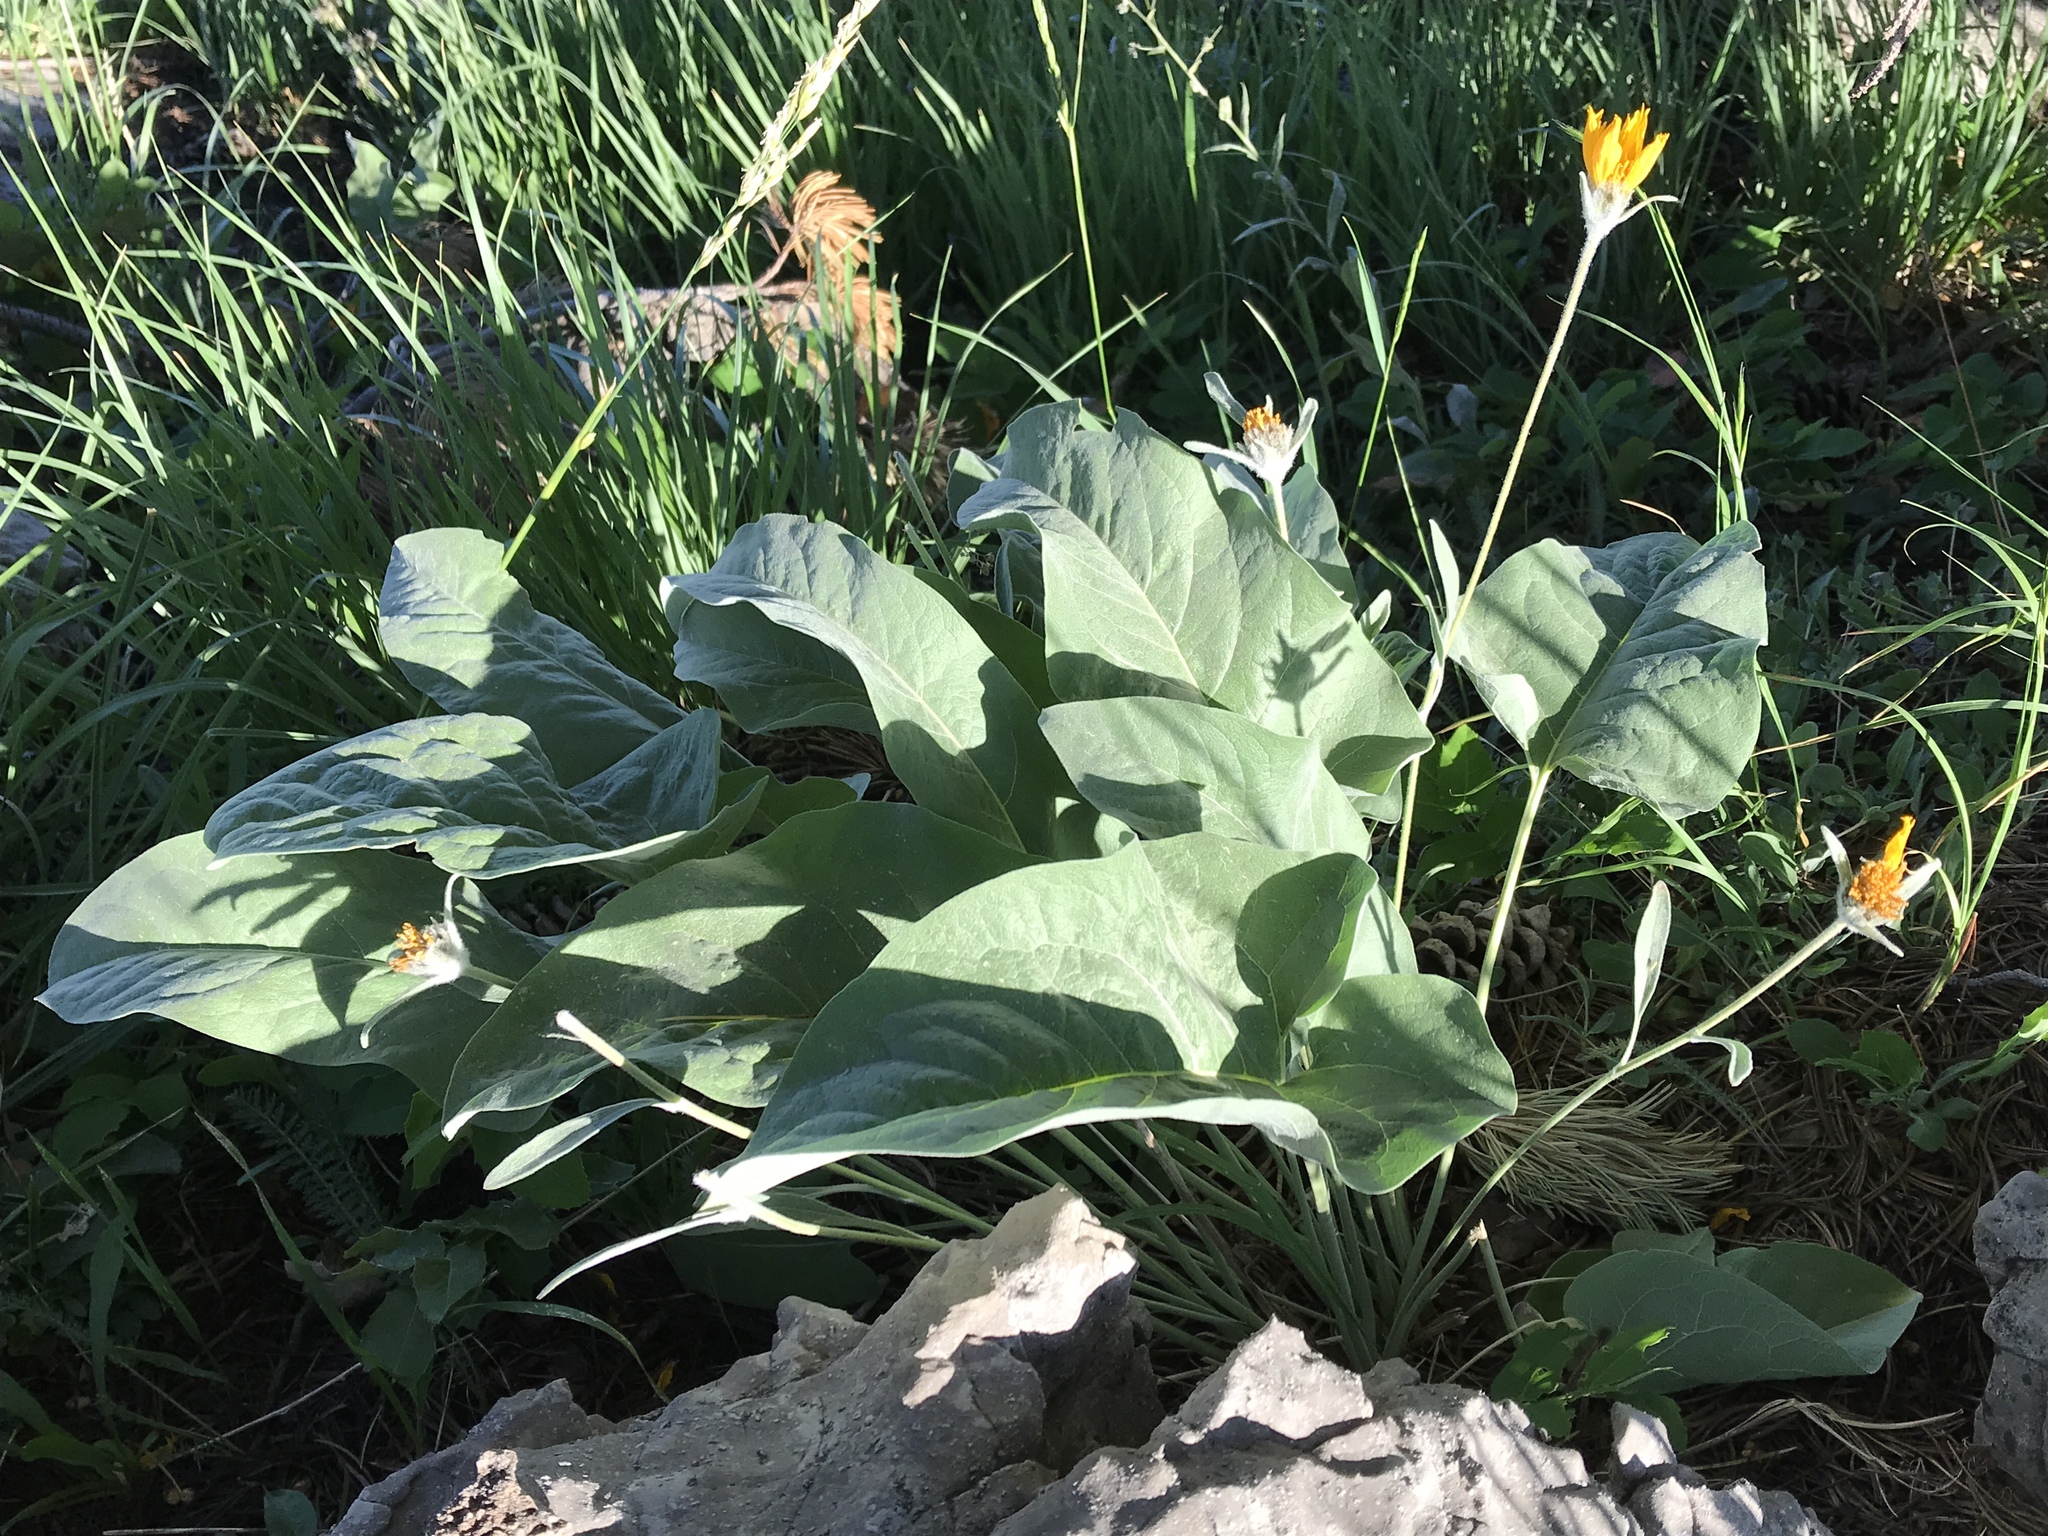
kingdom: Plantae
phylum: Tracheophyta
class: Magnoliopsida
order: Asterales
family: Asteraceae
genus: Wyethia
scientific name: Wyethia sagittata
